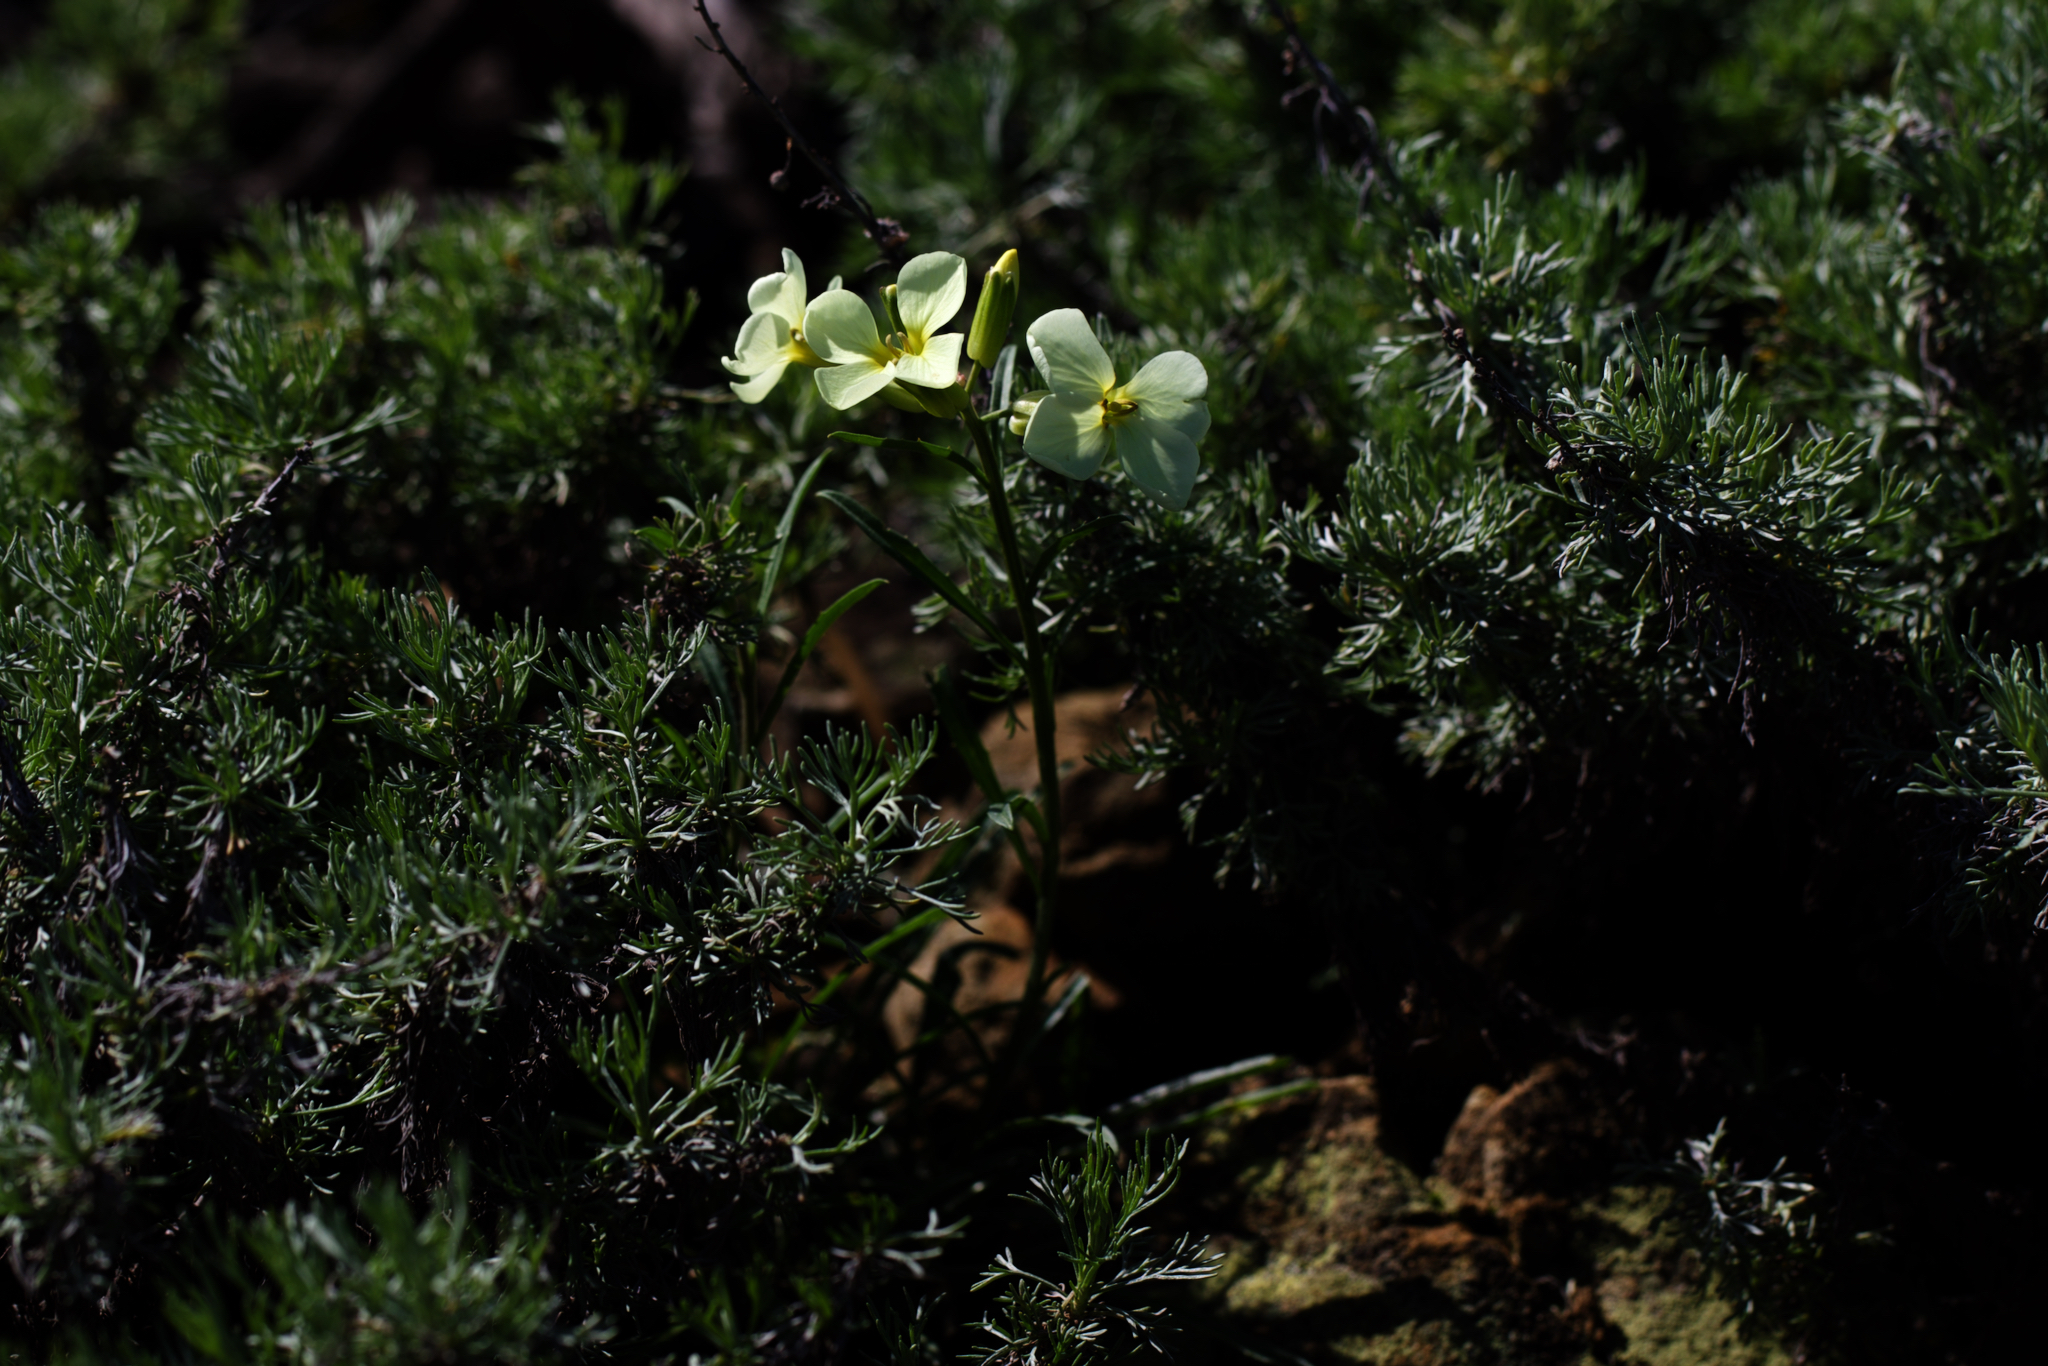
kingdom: Plantae
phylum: Tracheophyta
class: Magnoliopsida
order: Brassicales
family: Brassicaceae
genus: Erysimum
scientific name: Erysimum franciscanum
